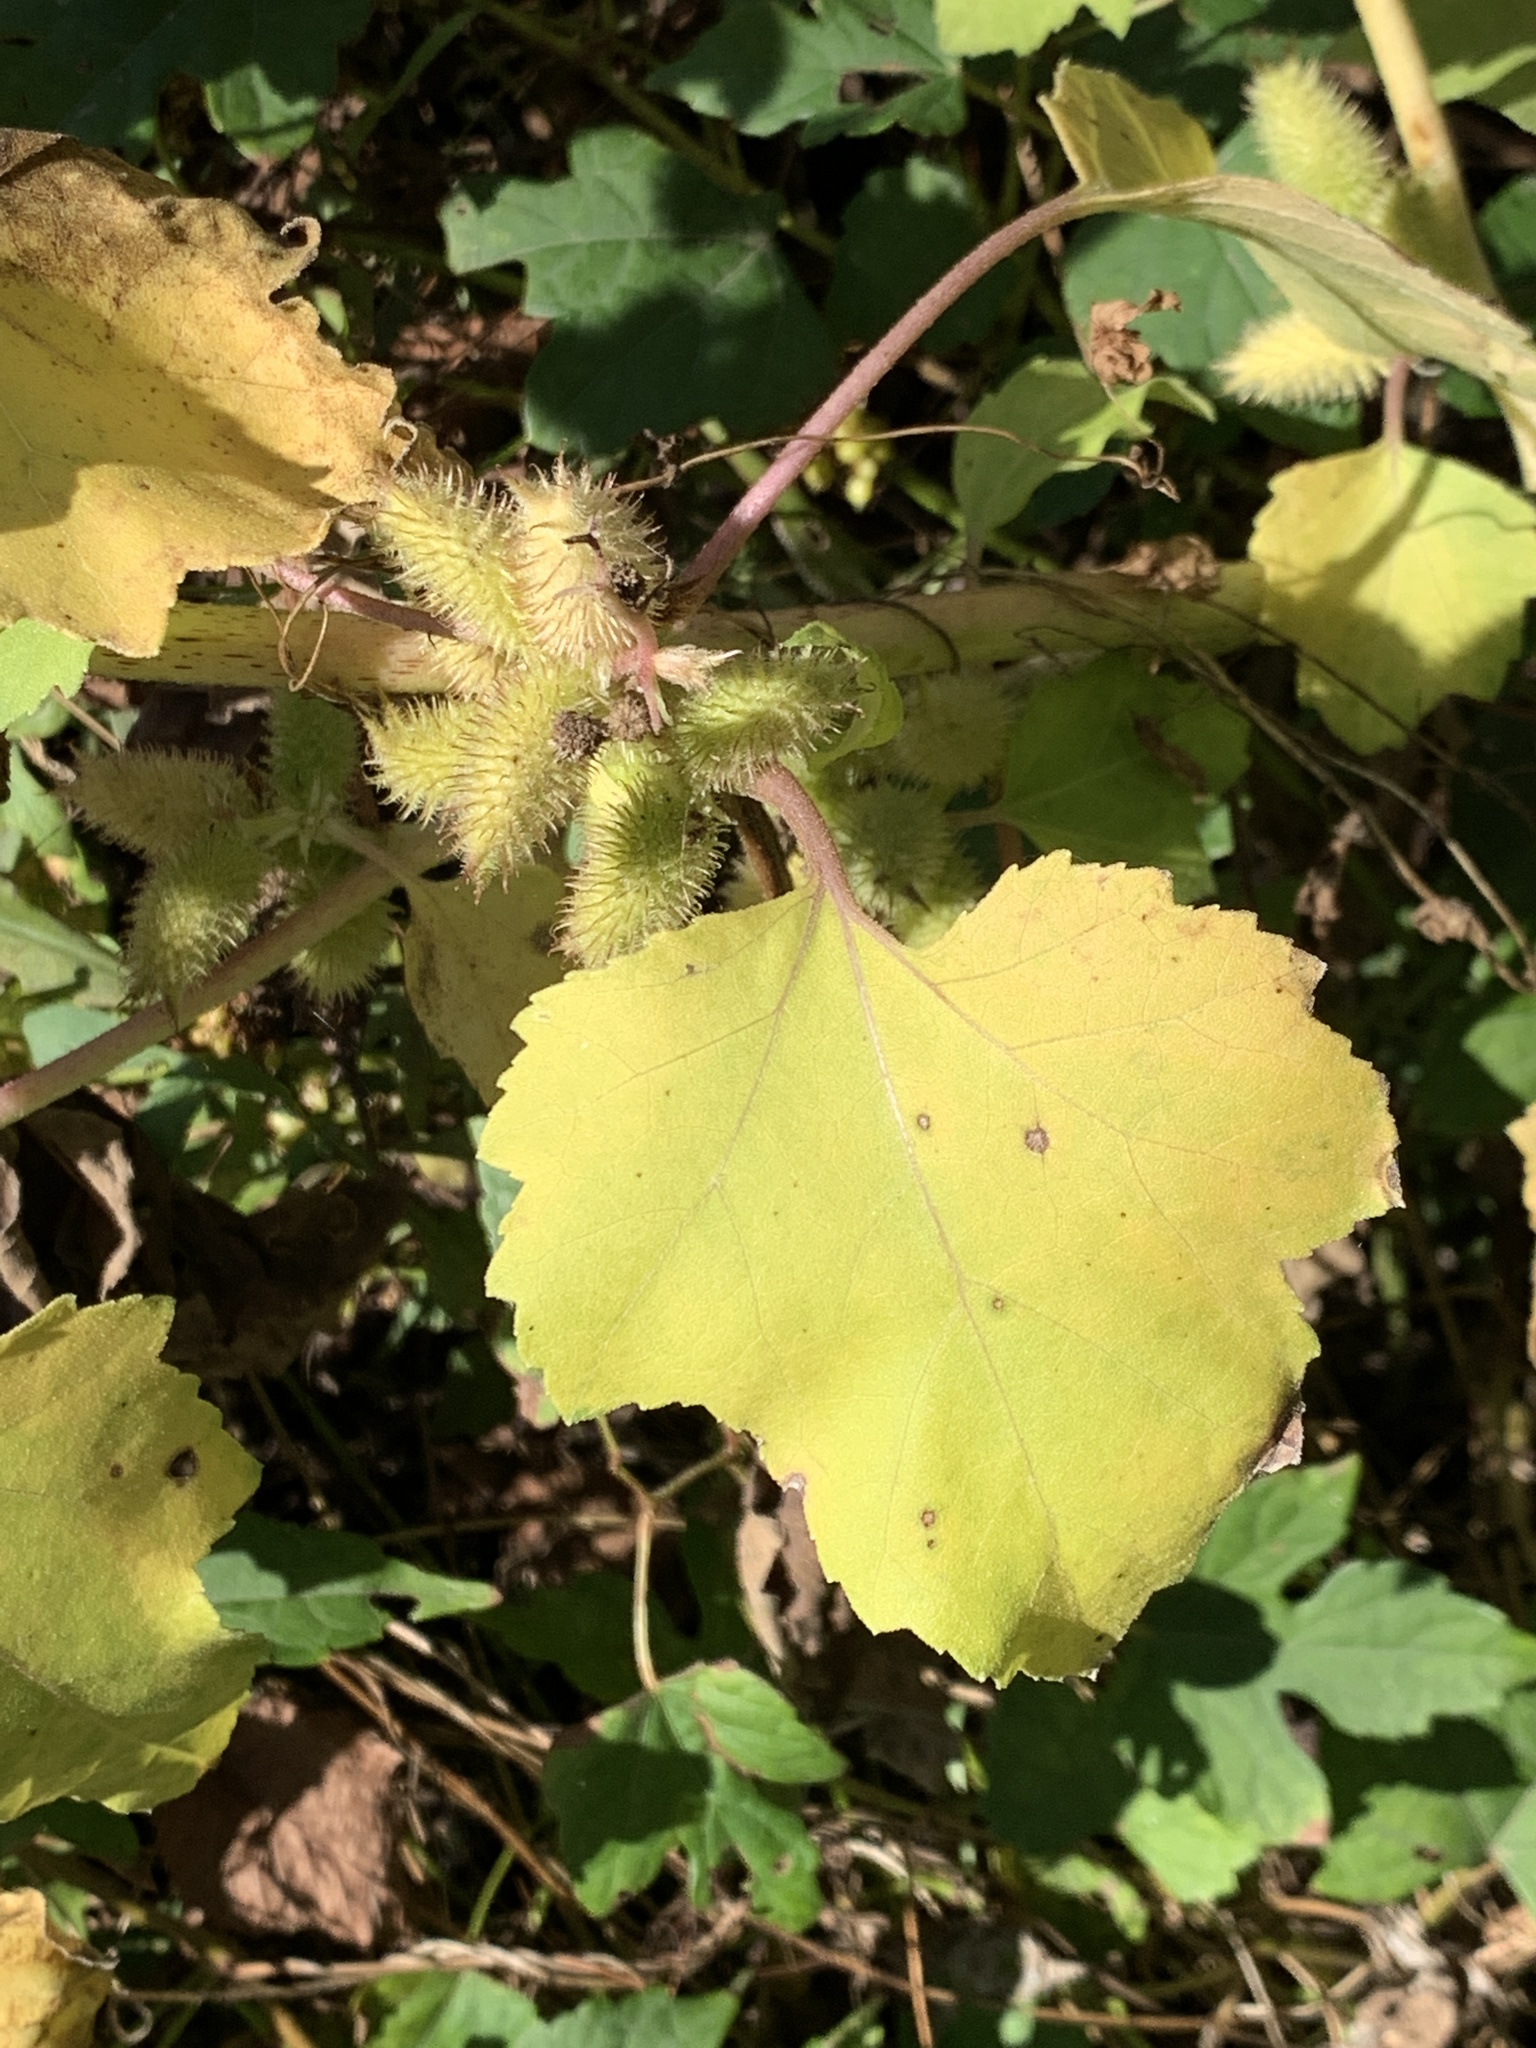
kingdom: Plantae
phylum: Tracheophyta
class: Magnoliopsida
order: Asterales
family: Asteraceae
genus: Xanthium
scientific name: Xanthium strumarium
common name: Rough cocklebur
